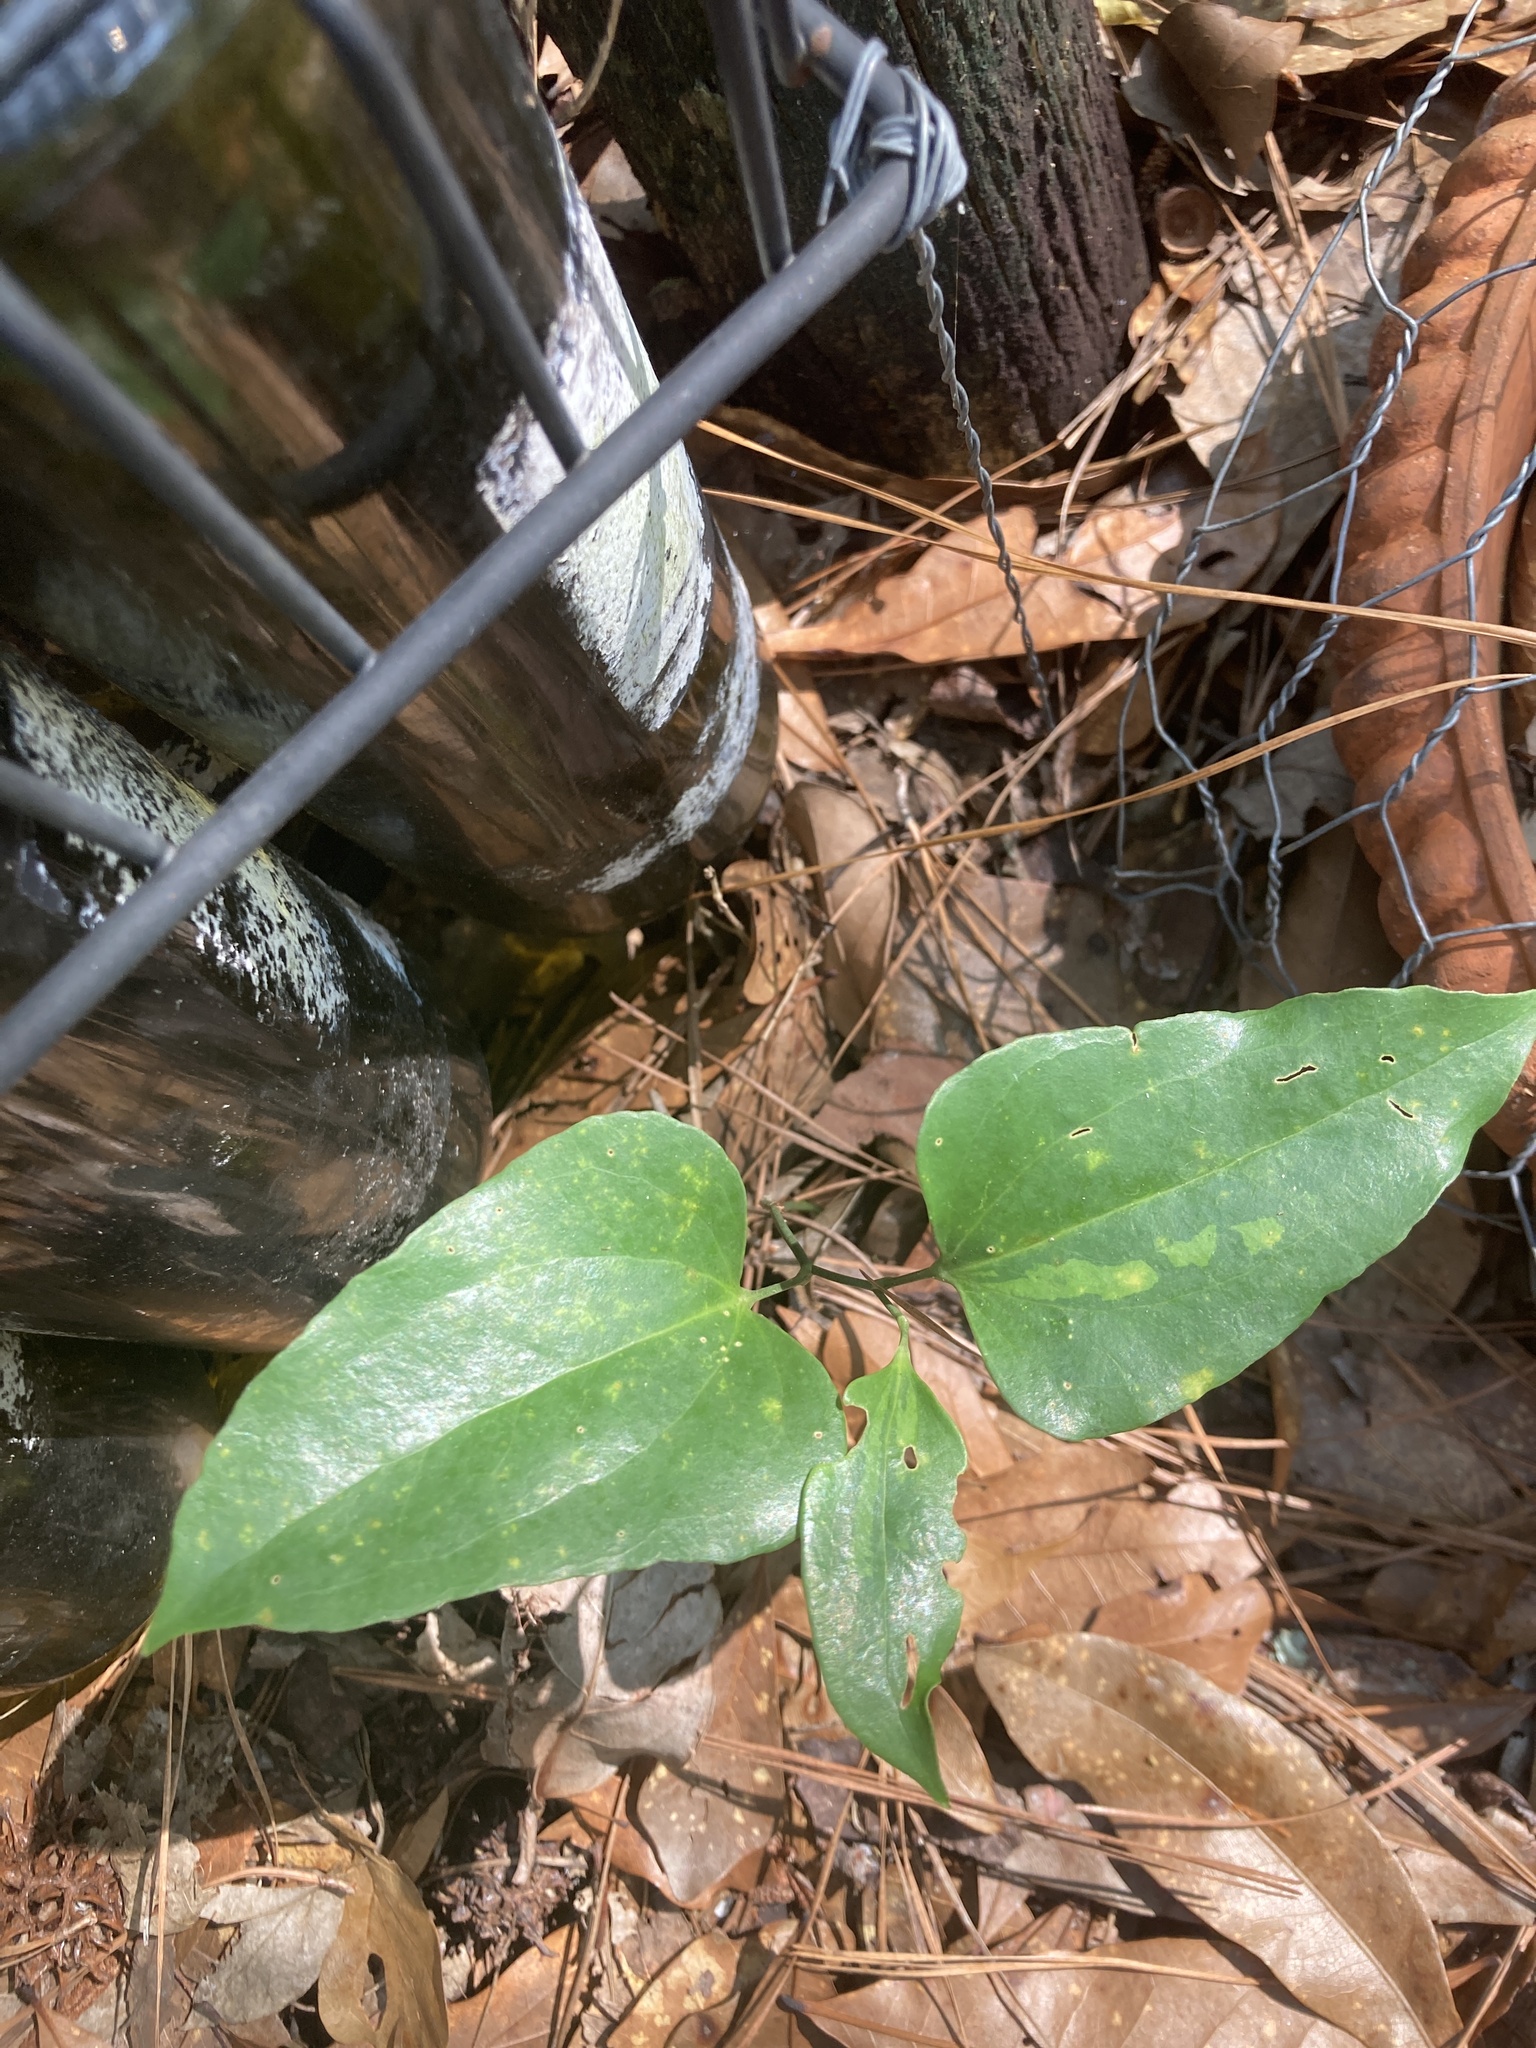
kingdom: Plantae
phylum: Tracheophyta
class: Liliopsida
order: Liliales
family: Smilacaceae
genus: Smilax
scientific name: Smilax maritima
